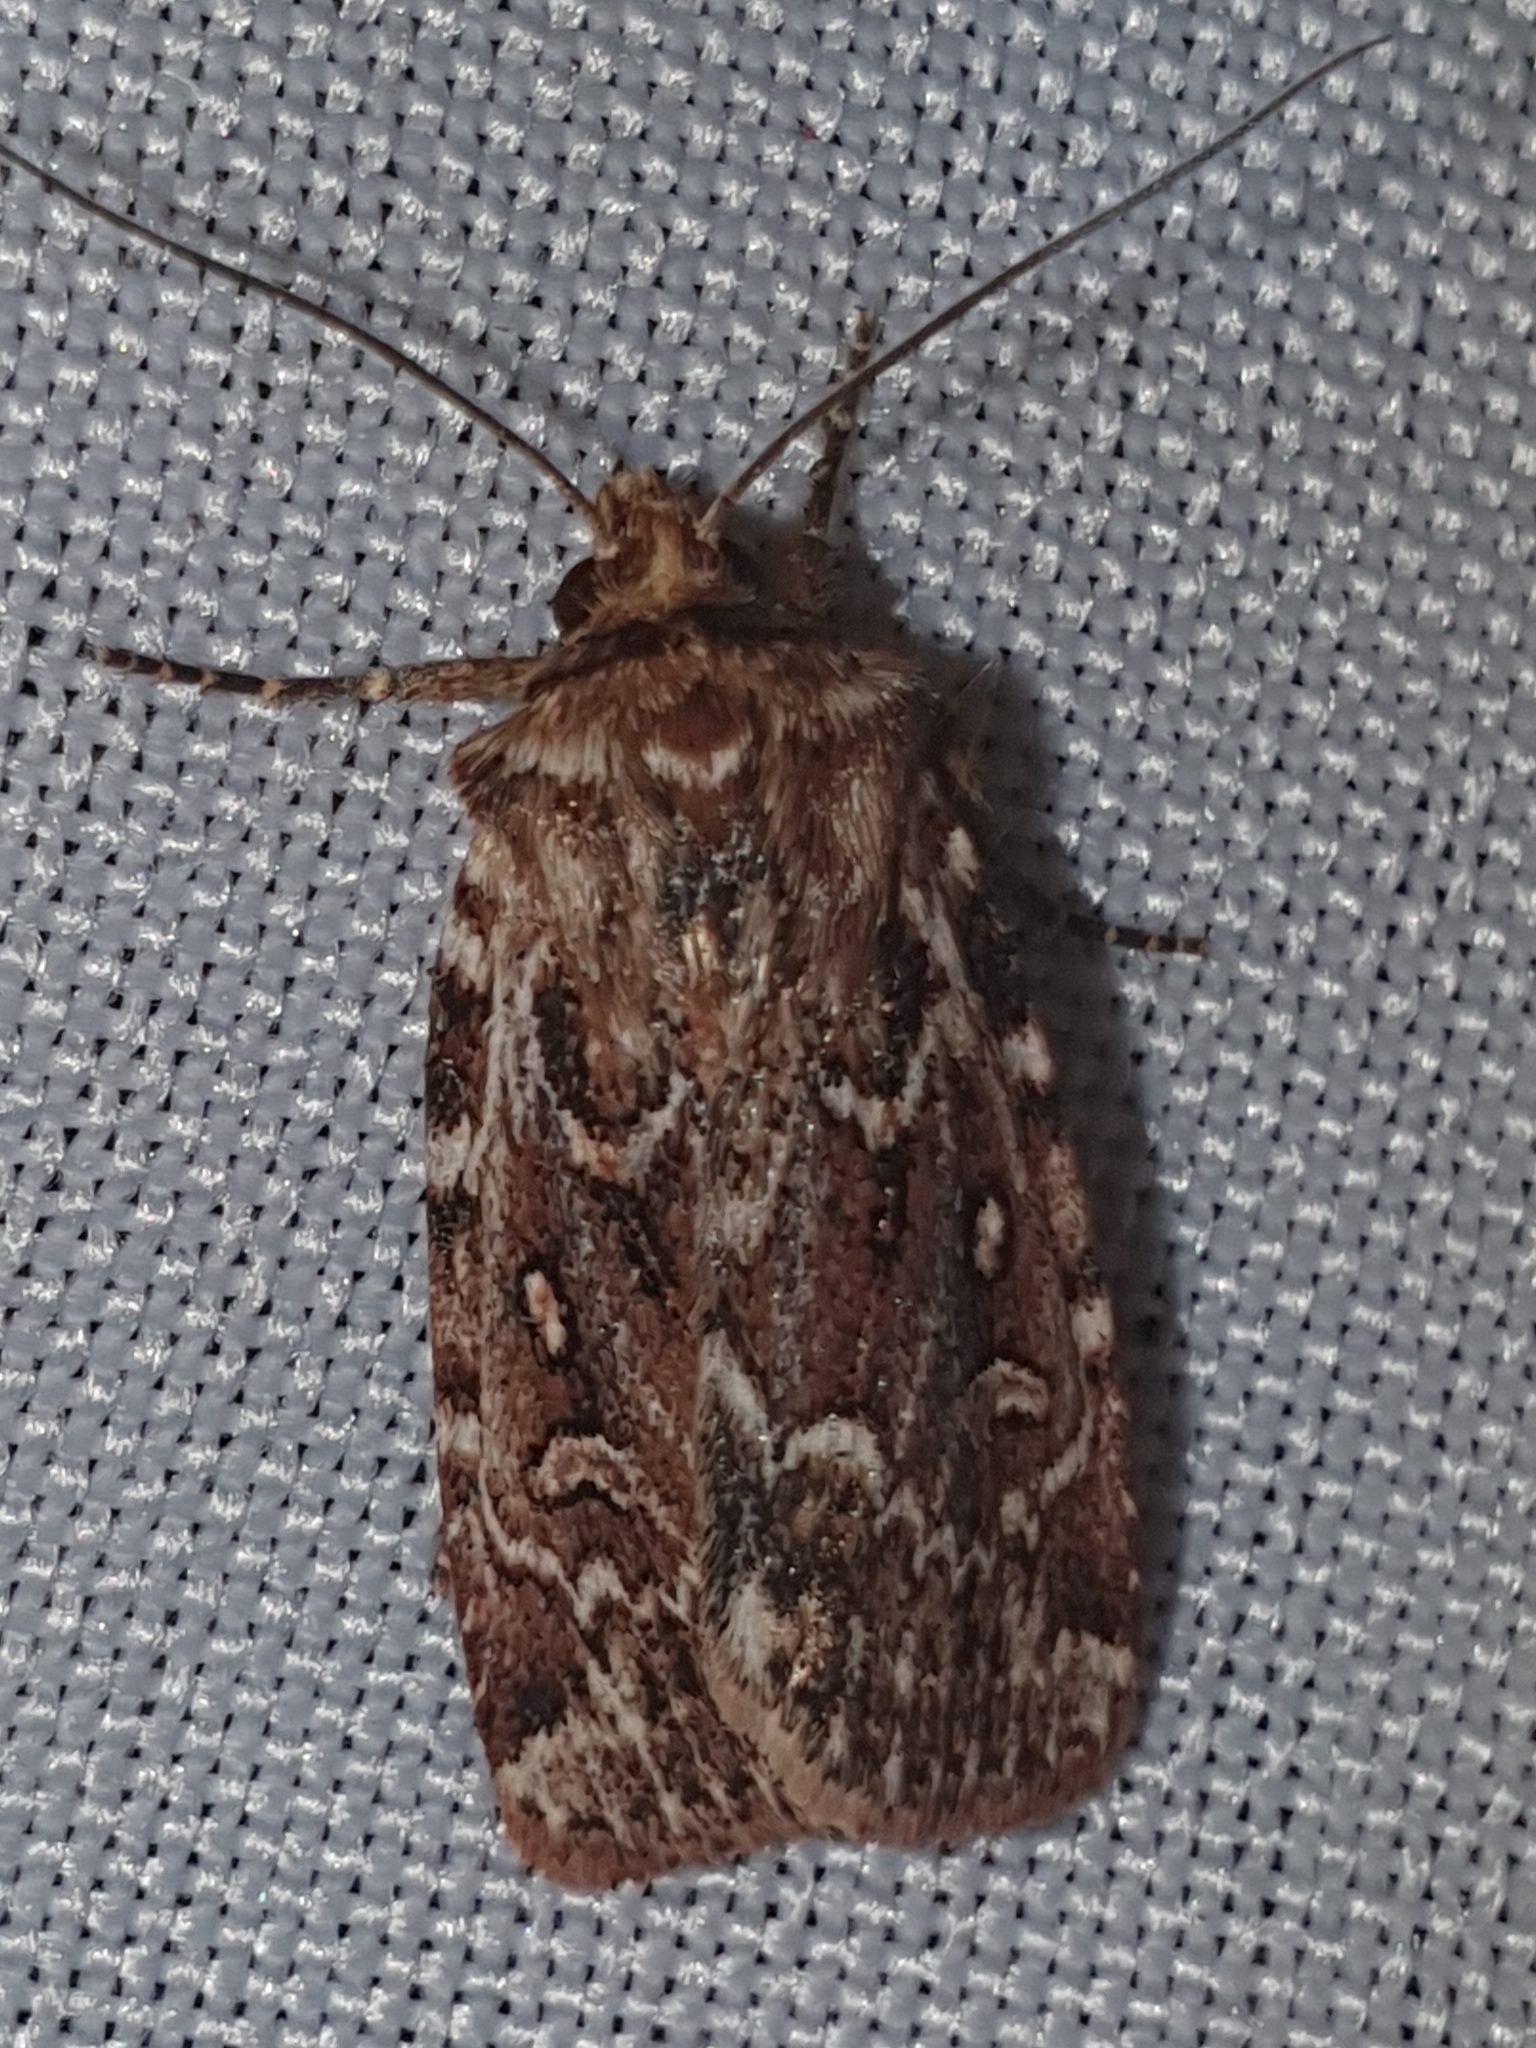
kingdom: Animalia
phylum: Arthropoda
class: Insecta
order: Lepidoptera
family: Noctuidae
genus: Lycophotia
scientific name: Lycophotia porphyrea
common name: True lover's knot
